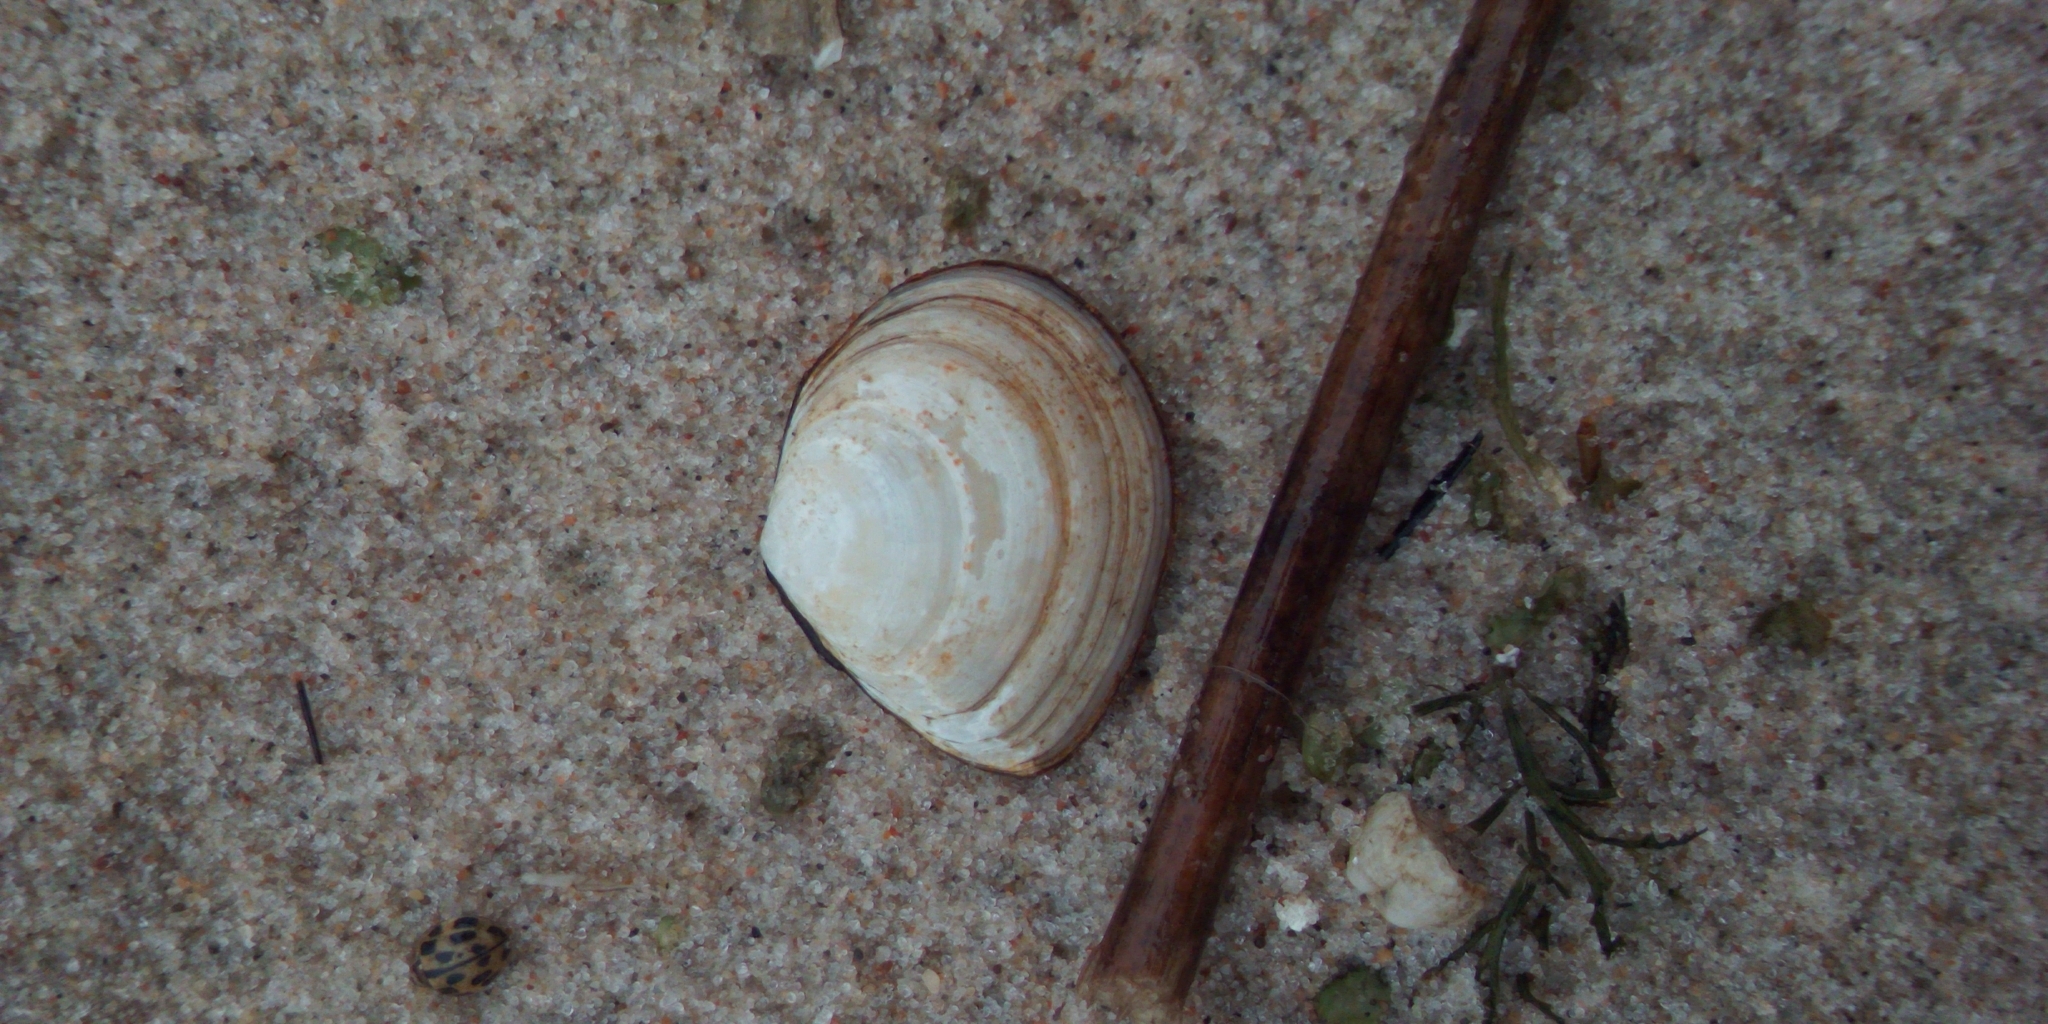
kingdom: Animalia
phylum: Mollusca
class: Bivalvia
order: Cardiida
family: Tellinidae
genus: Macoma
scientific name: Macoma balthica
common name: Baltic tellin
